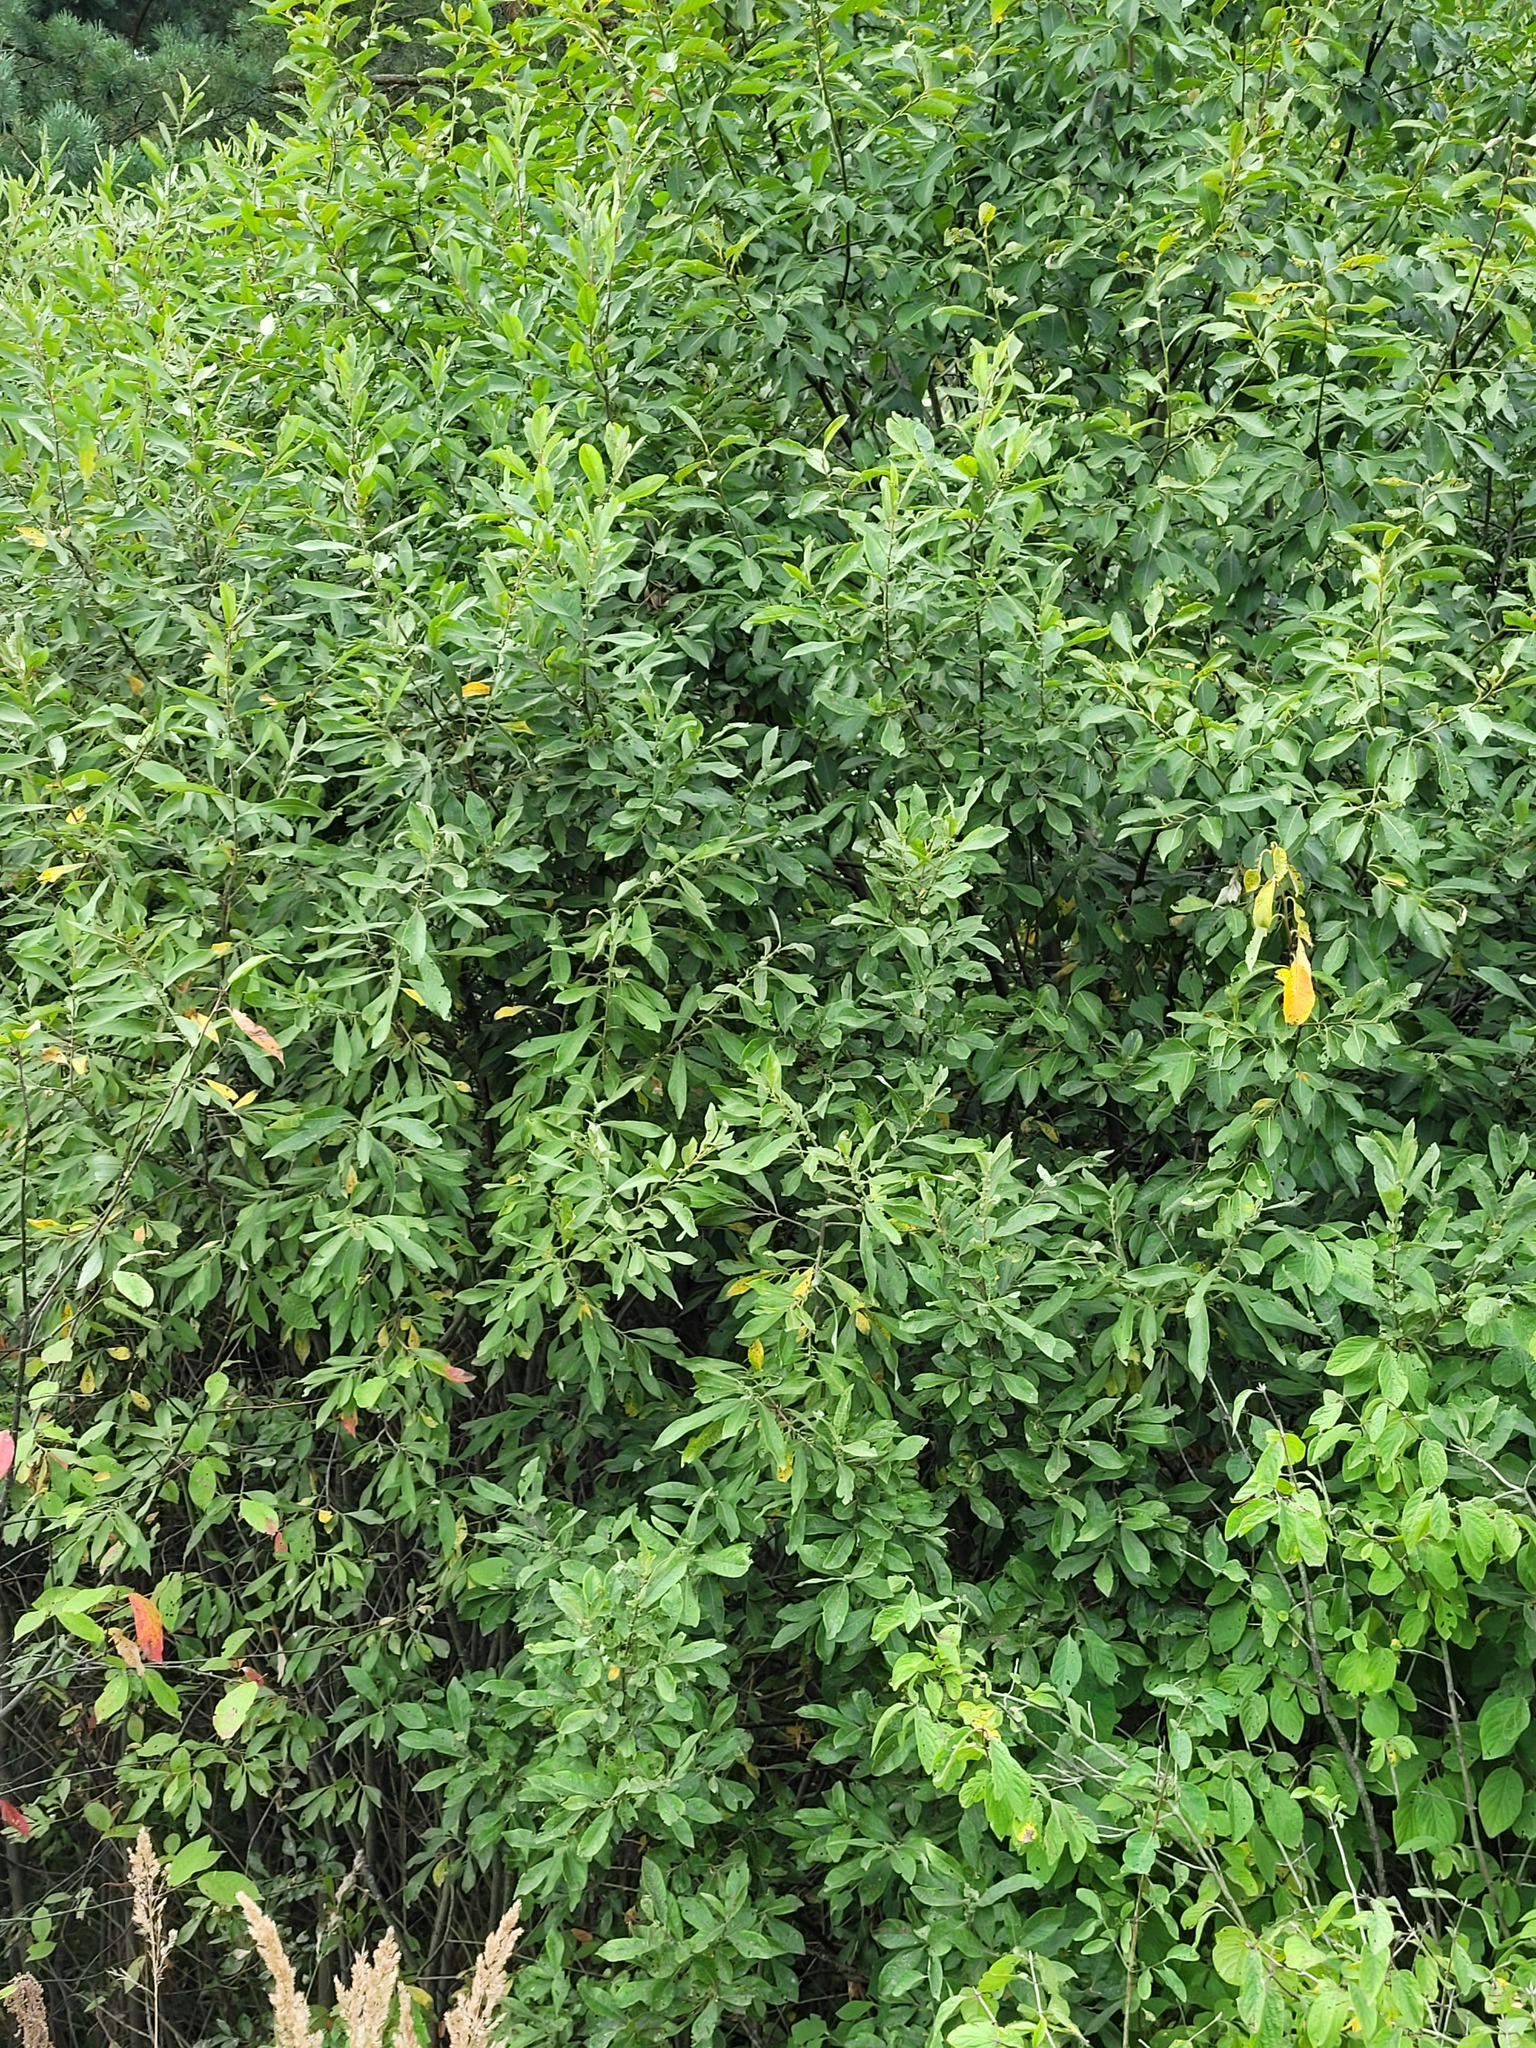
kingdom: Plantae
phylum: Tracheophyta
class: Magnoliopsida
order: Malpighiales
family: Salicaceae
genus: Salix
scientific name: Salix cinerea
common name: Common sallow
